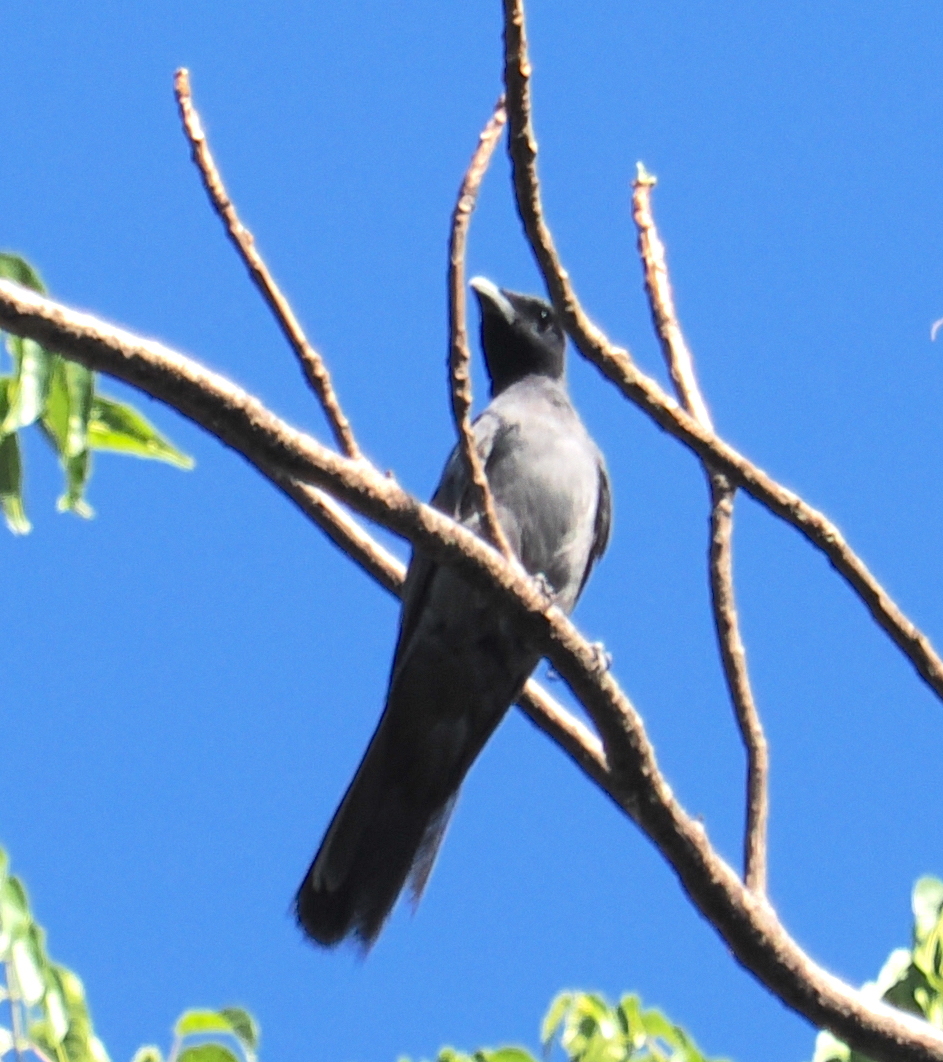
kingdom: Animalia
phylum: Chordata
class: Aves
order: Passeriformes
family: Campephagidae
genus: Coracina
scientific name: Coracina personata
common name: Wallacean cuckooshrike
